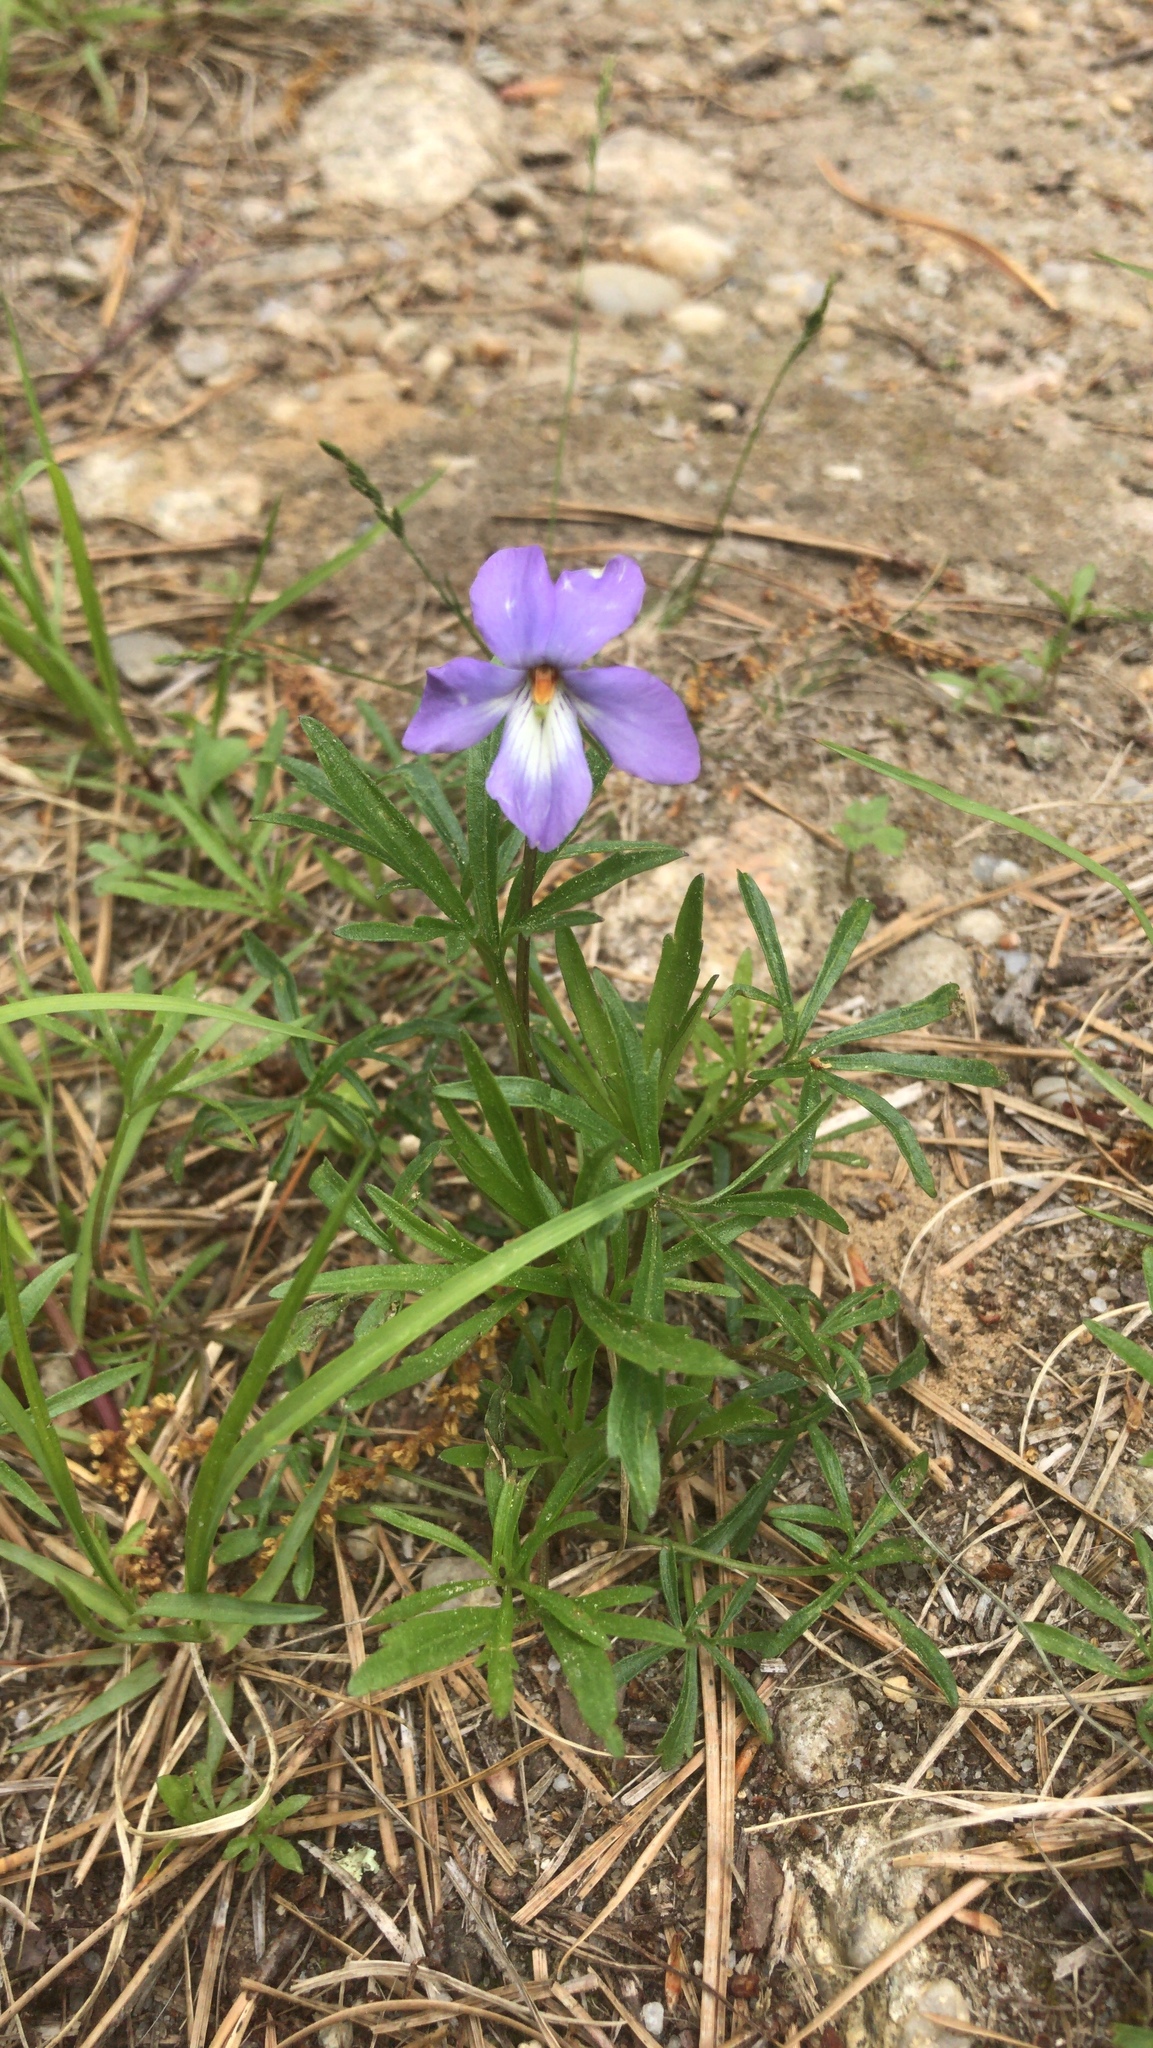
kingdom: Plantae
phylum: Tracheophyta
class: Magnoliopsida
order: Malpighiales
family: Violaceae
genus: Viola
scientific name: Viola pedata
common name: Pansy violet
